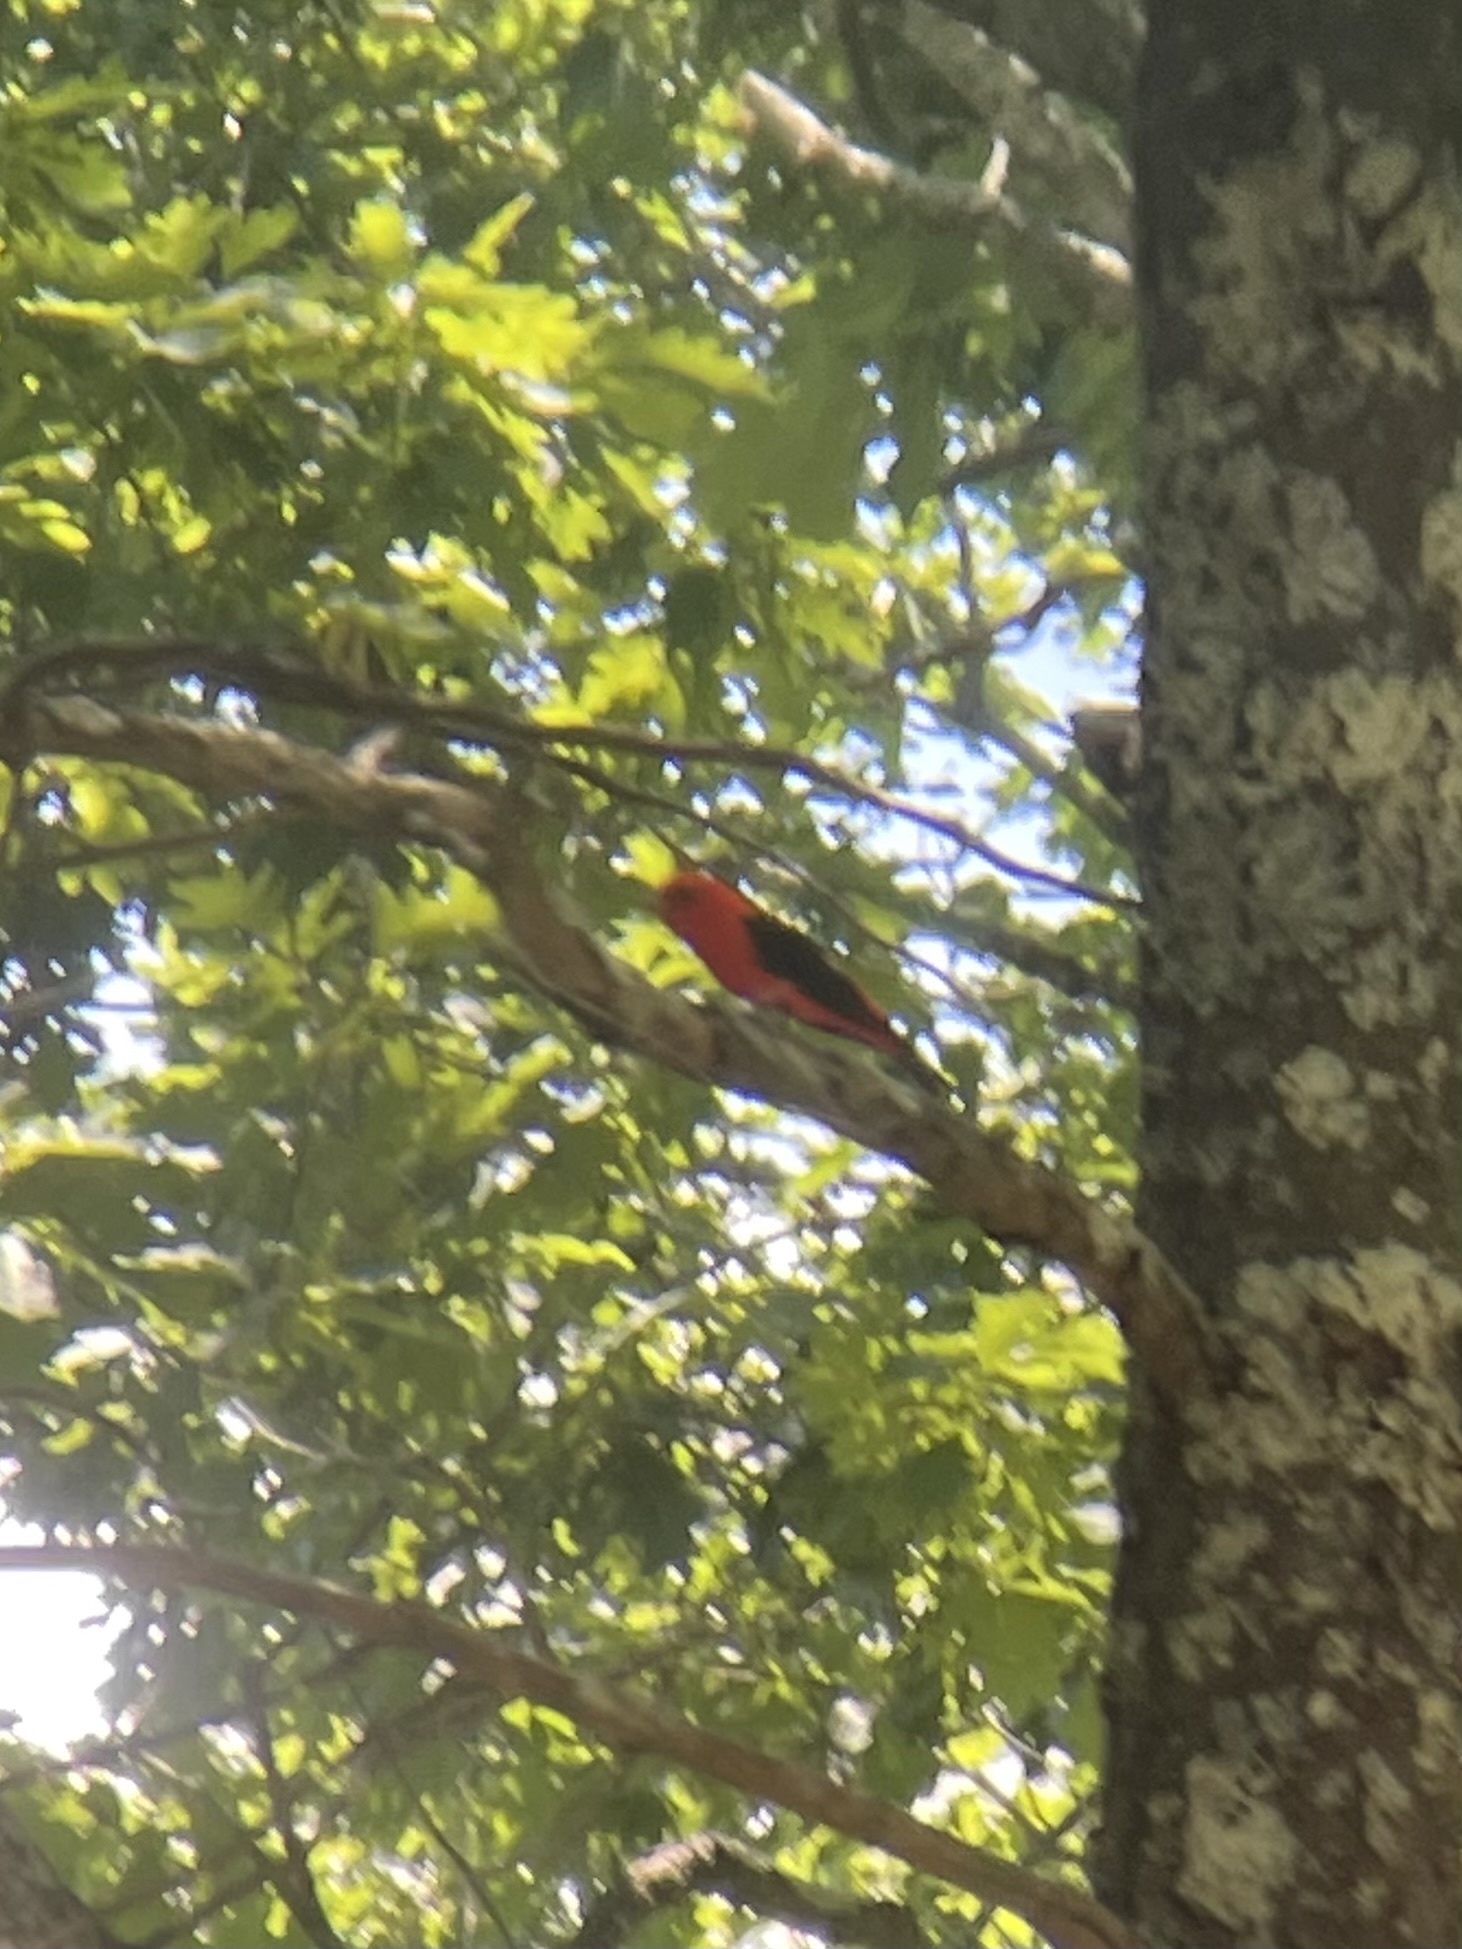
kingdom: Animalia
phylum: Chordata
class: Aves
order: Passeriformes
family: Cardinalidae
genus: Piranga
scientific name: Piranga olivacea
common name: Scarlet tanager
